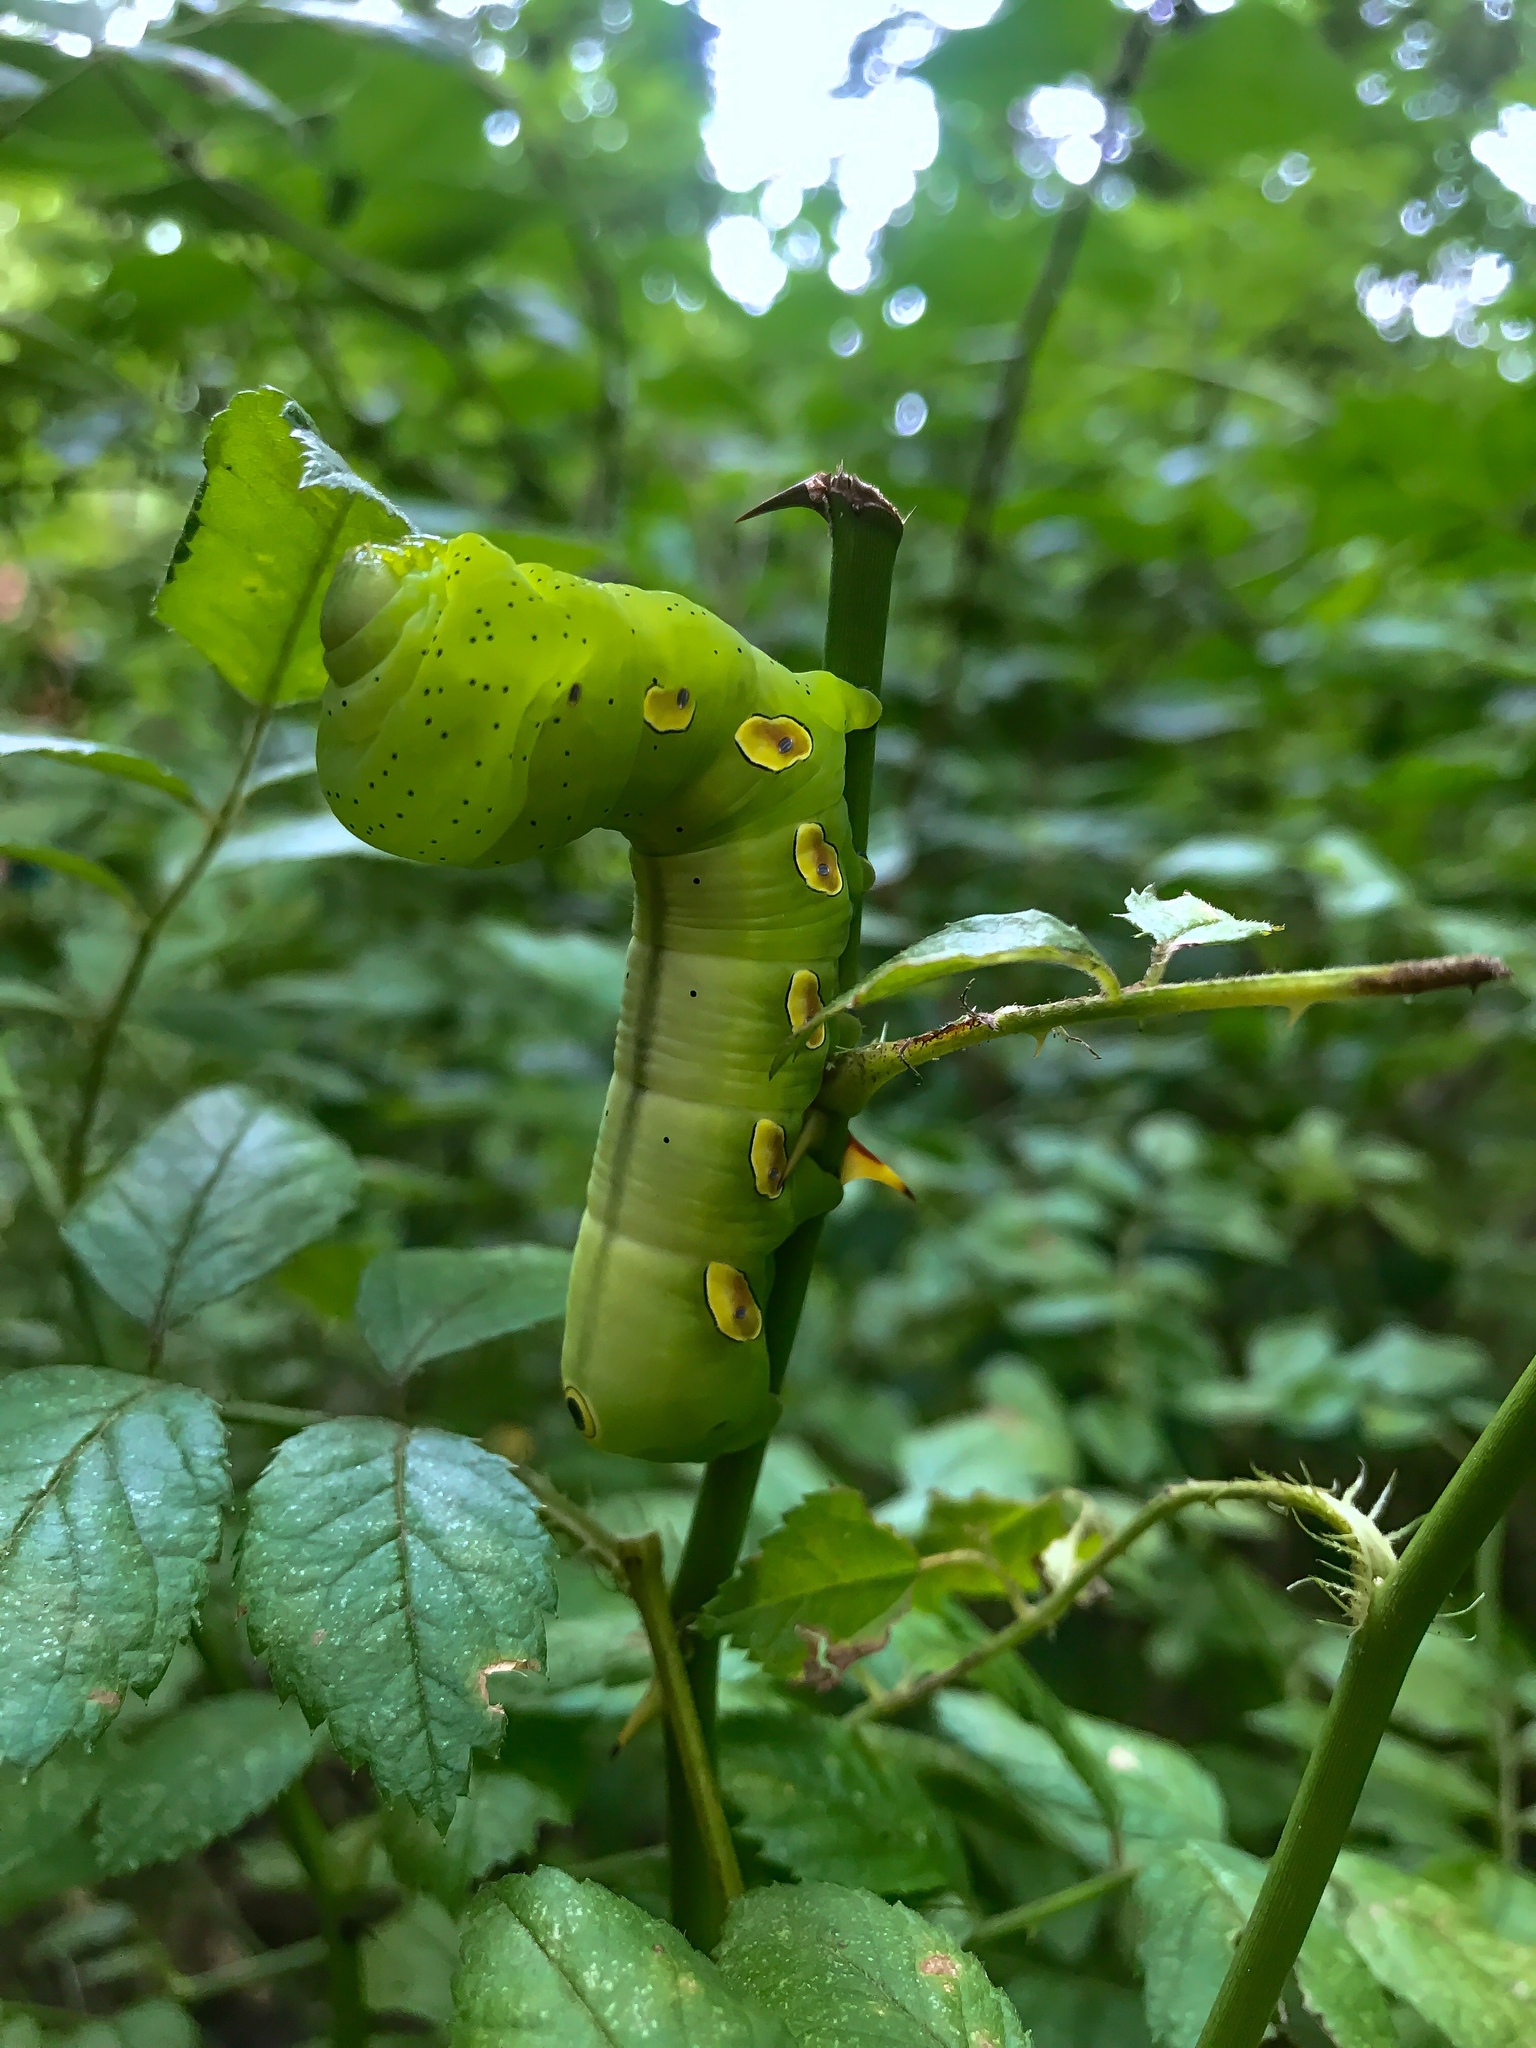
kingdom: Animalia
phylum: Arthropoda
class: Insecta
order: Lepidoptera
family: Sphingidae
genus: Eumorpha
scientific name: Eumorpha pandorus
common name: Pandora sphinx
